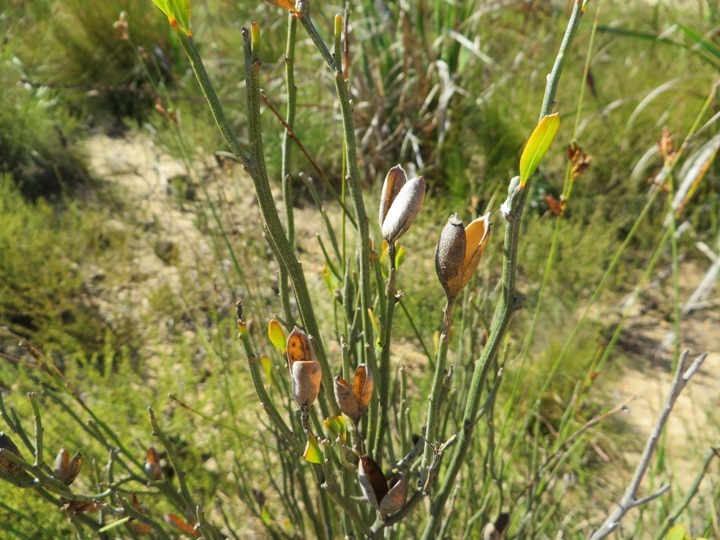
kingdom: Plantae
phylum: Tracheophyta
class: Magnoliopsida
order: Solanales
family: Montiniaceae
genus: Montinia
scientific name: Montinia caryophyllacea
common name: Wild clove-bush
